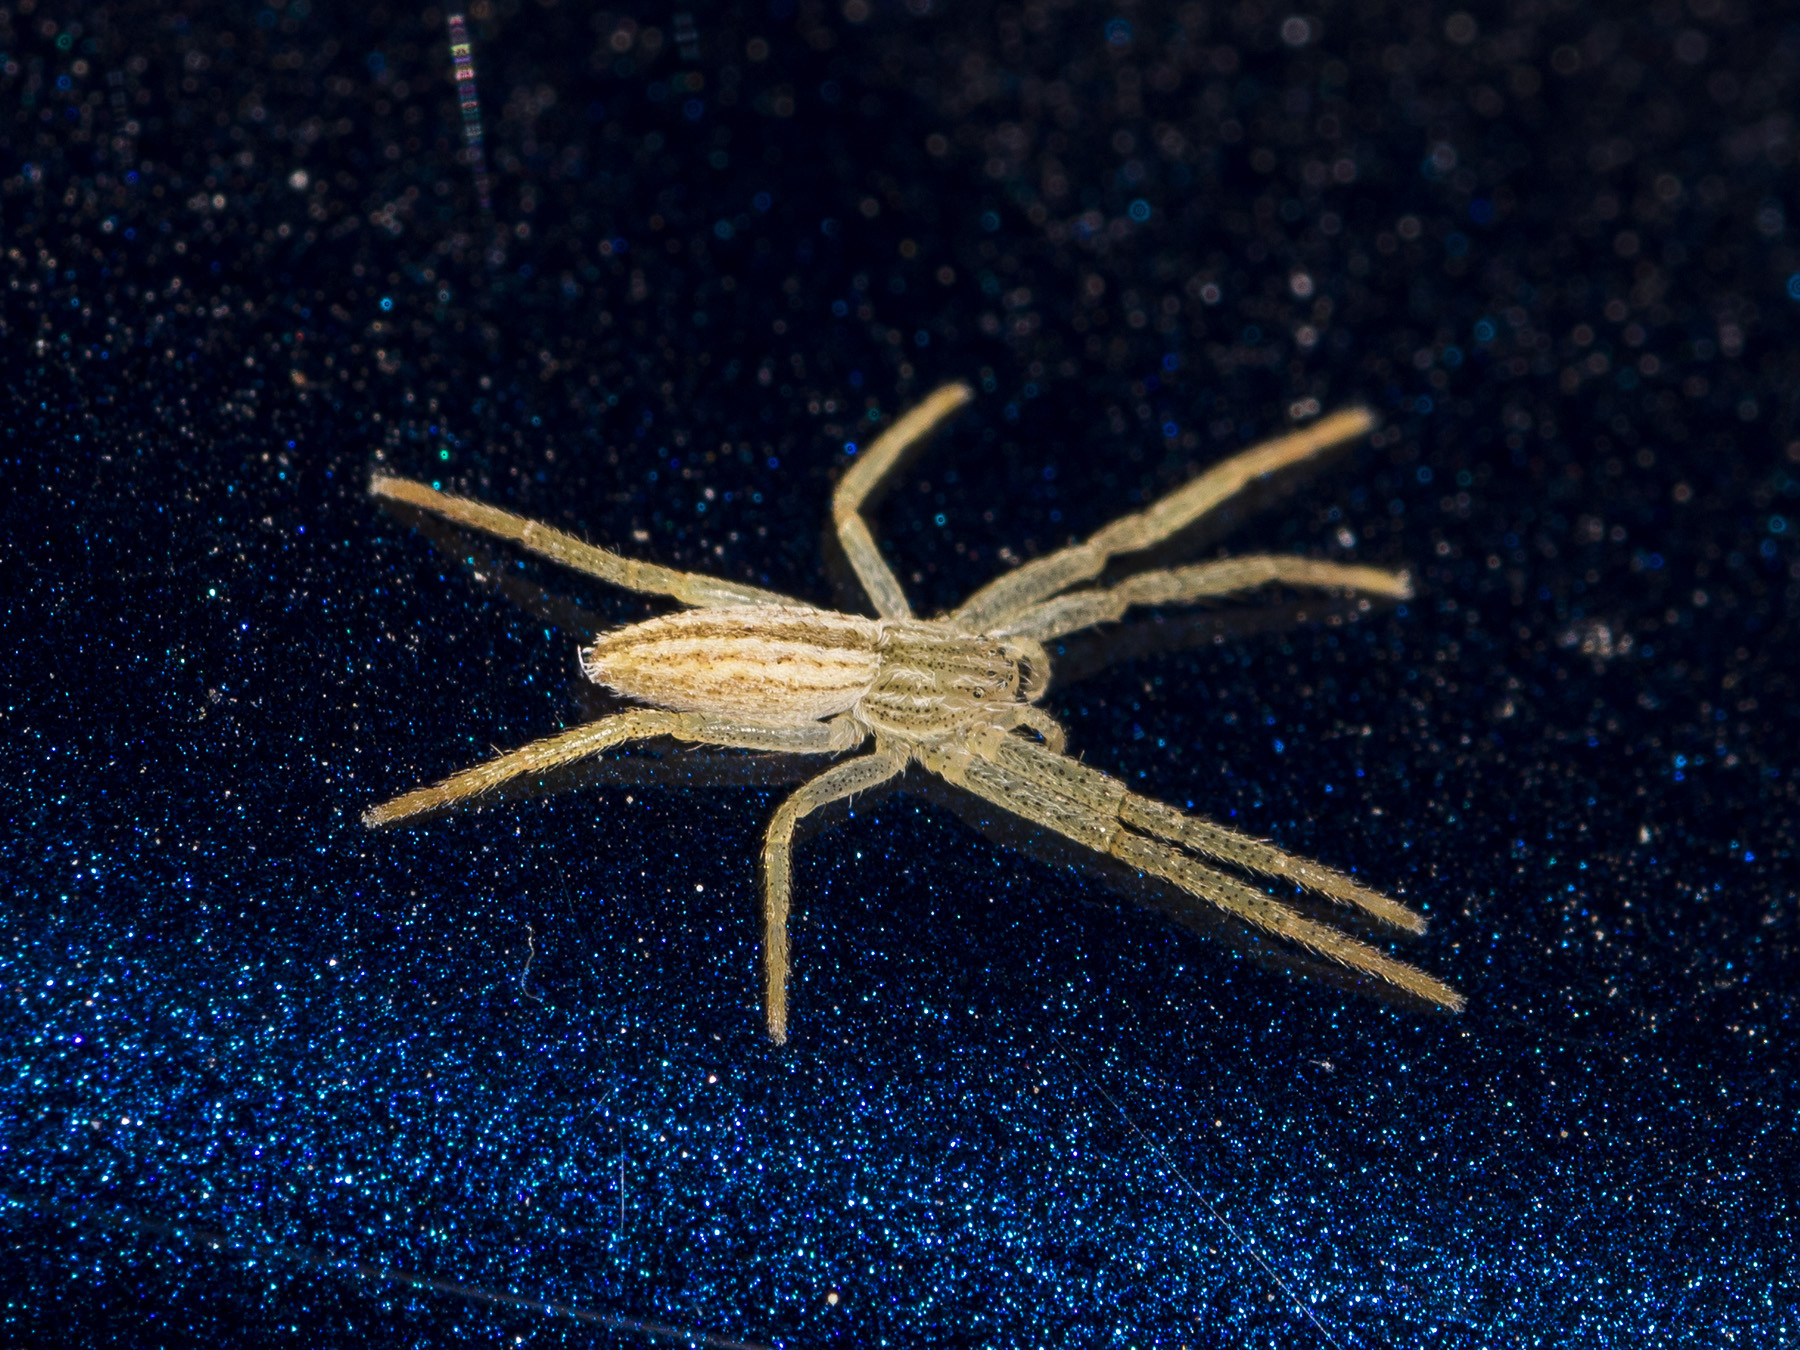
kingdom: Animalia
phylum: Arthropoda
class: Arachnida
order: Araneae
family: Philodromidae
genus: Tibellus
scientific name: Tibellus oblongus
